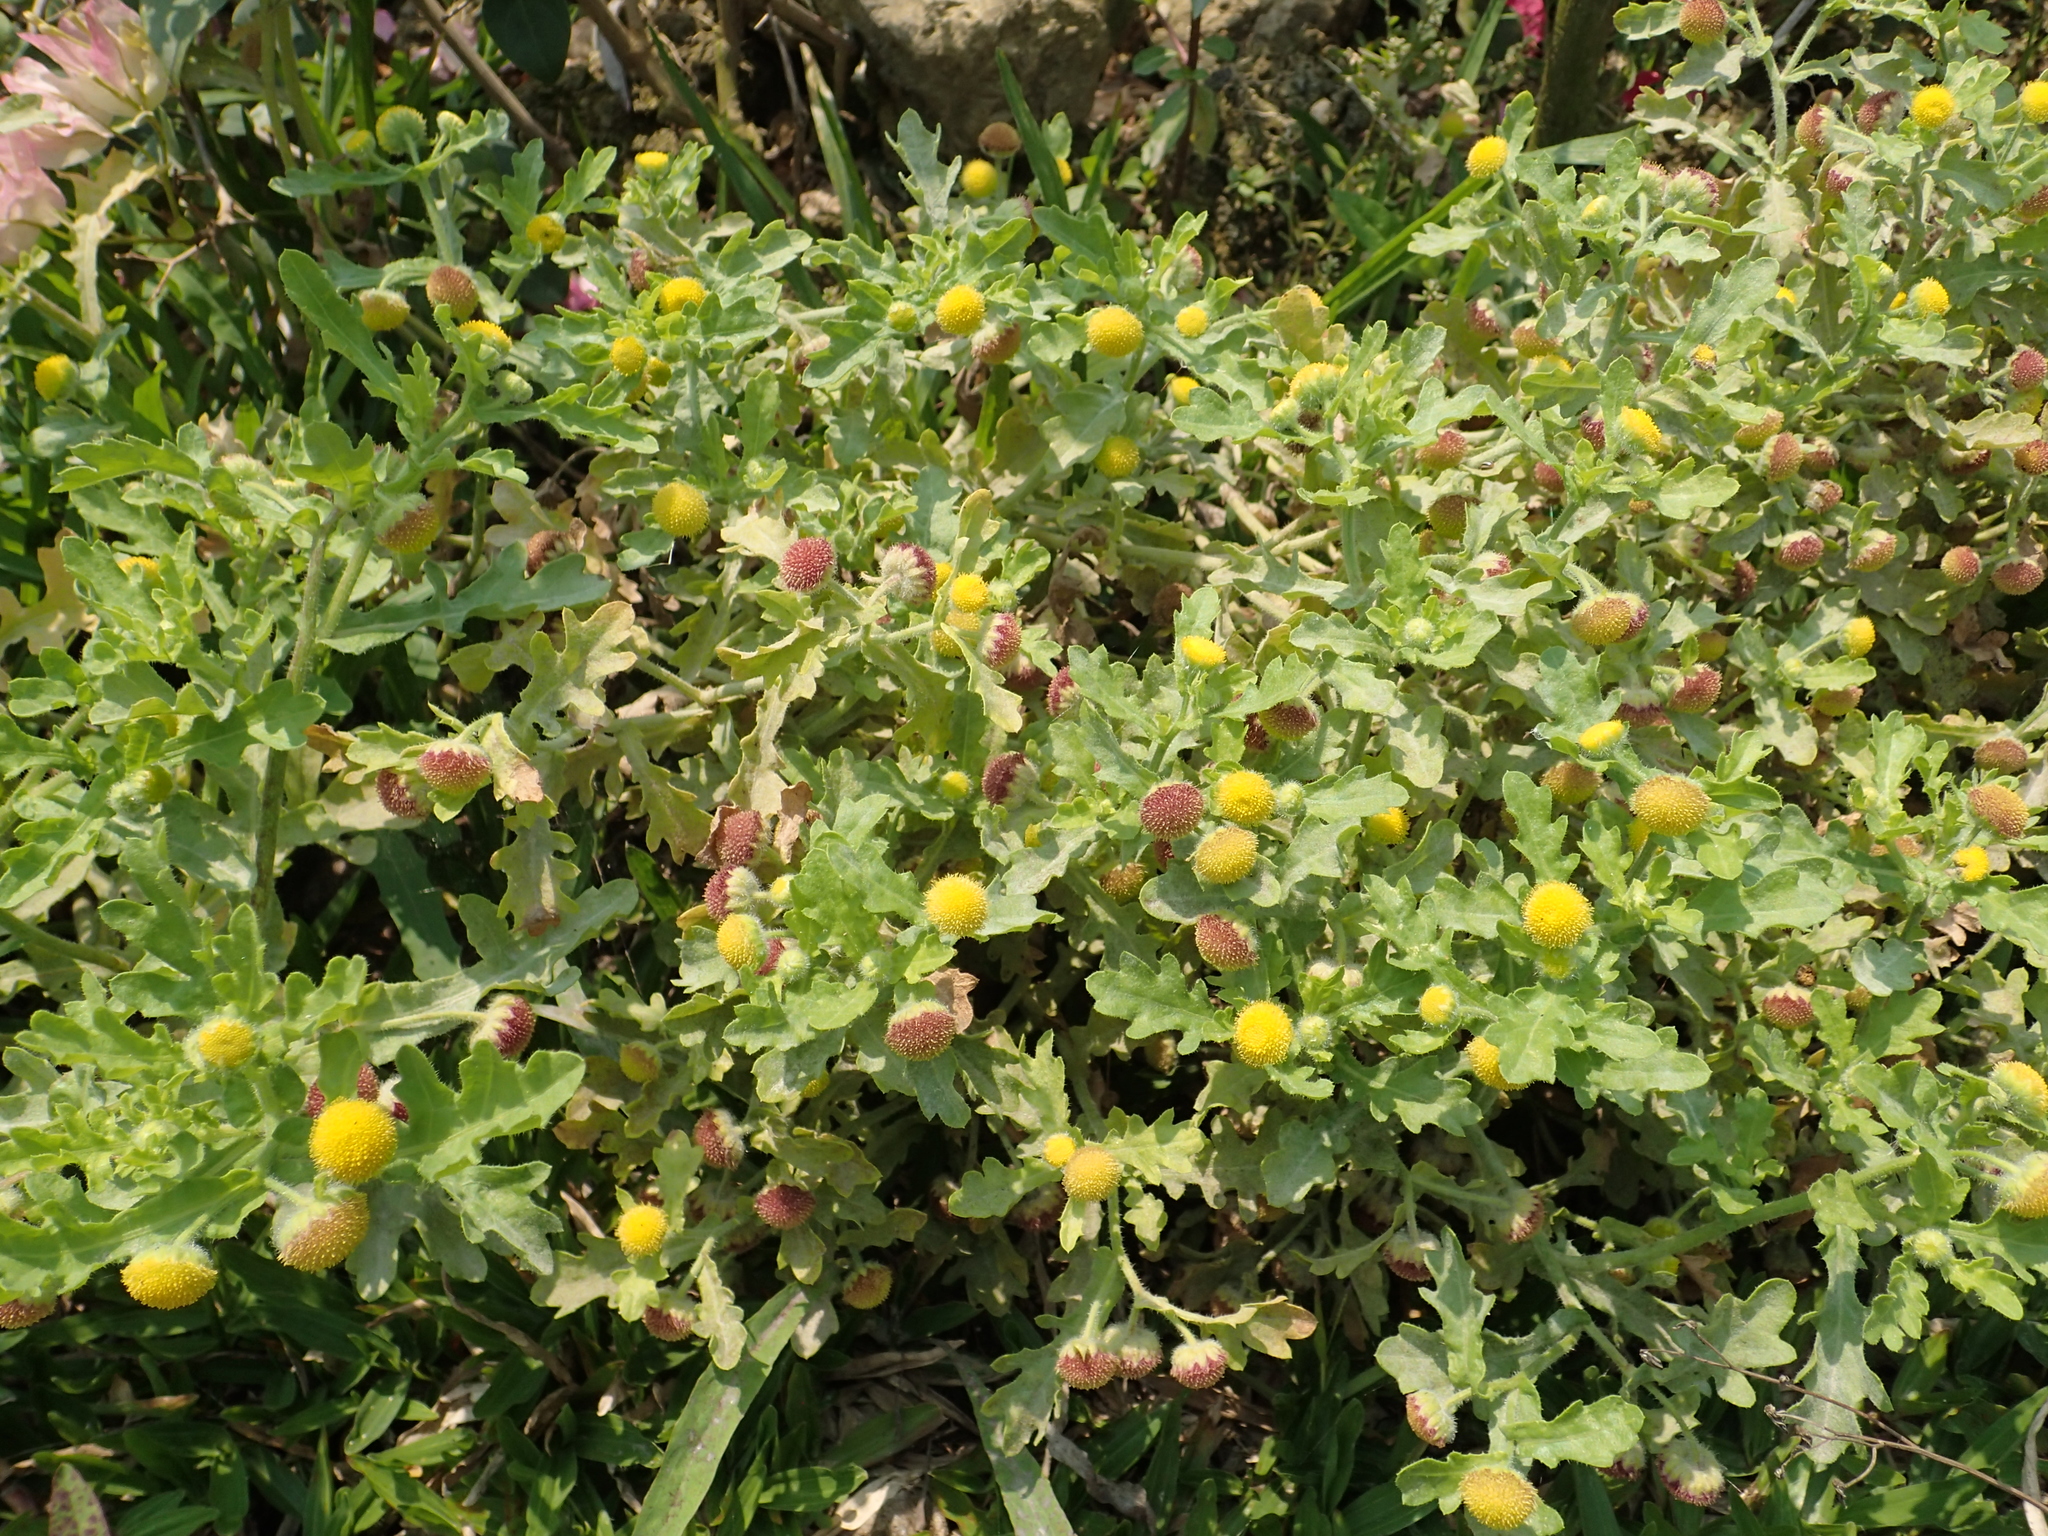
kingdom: Plantae
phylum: Tracheophyta
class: Magnoliopsida
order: Asterales
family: Asteraceae
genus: Grangea
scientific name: Grangea maderaspatana
